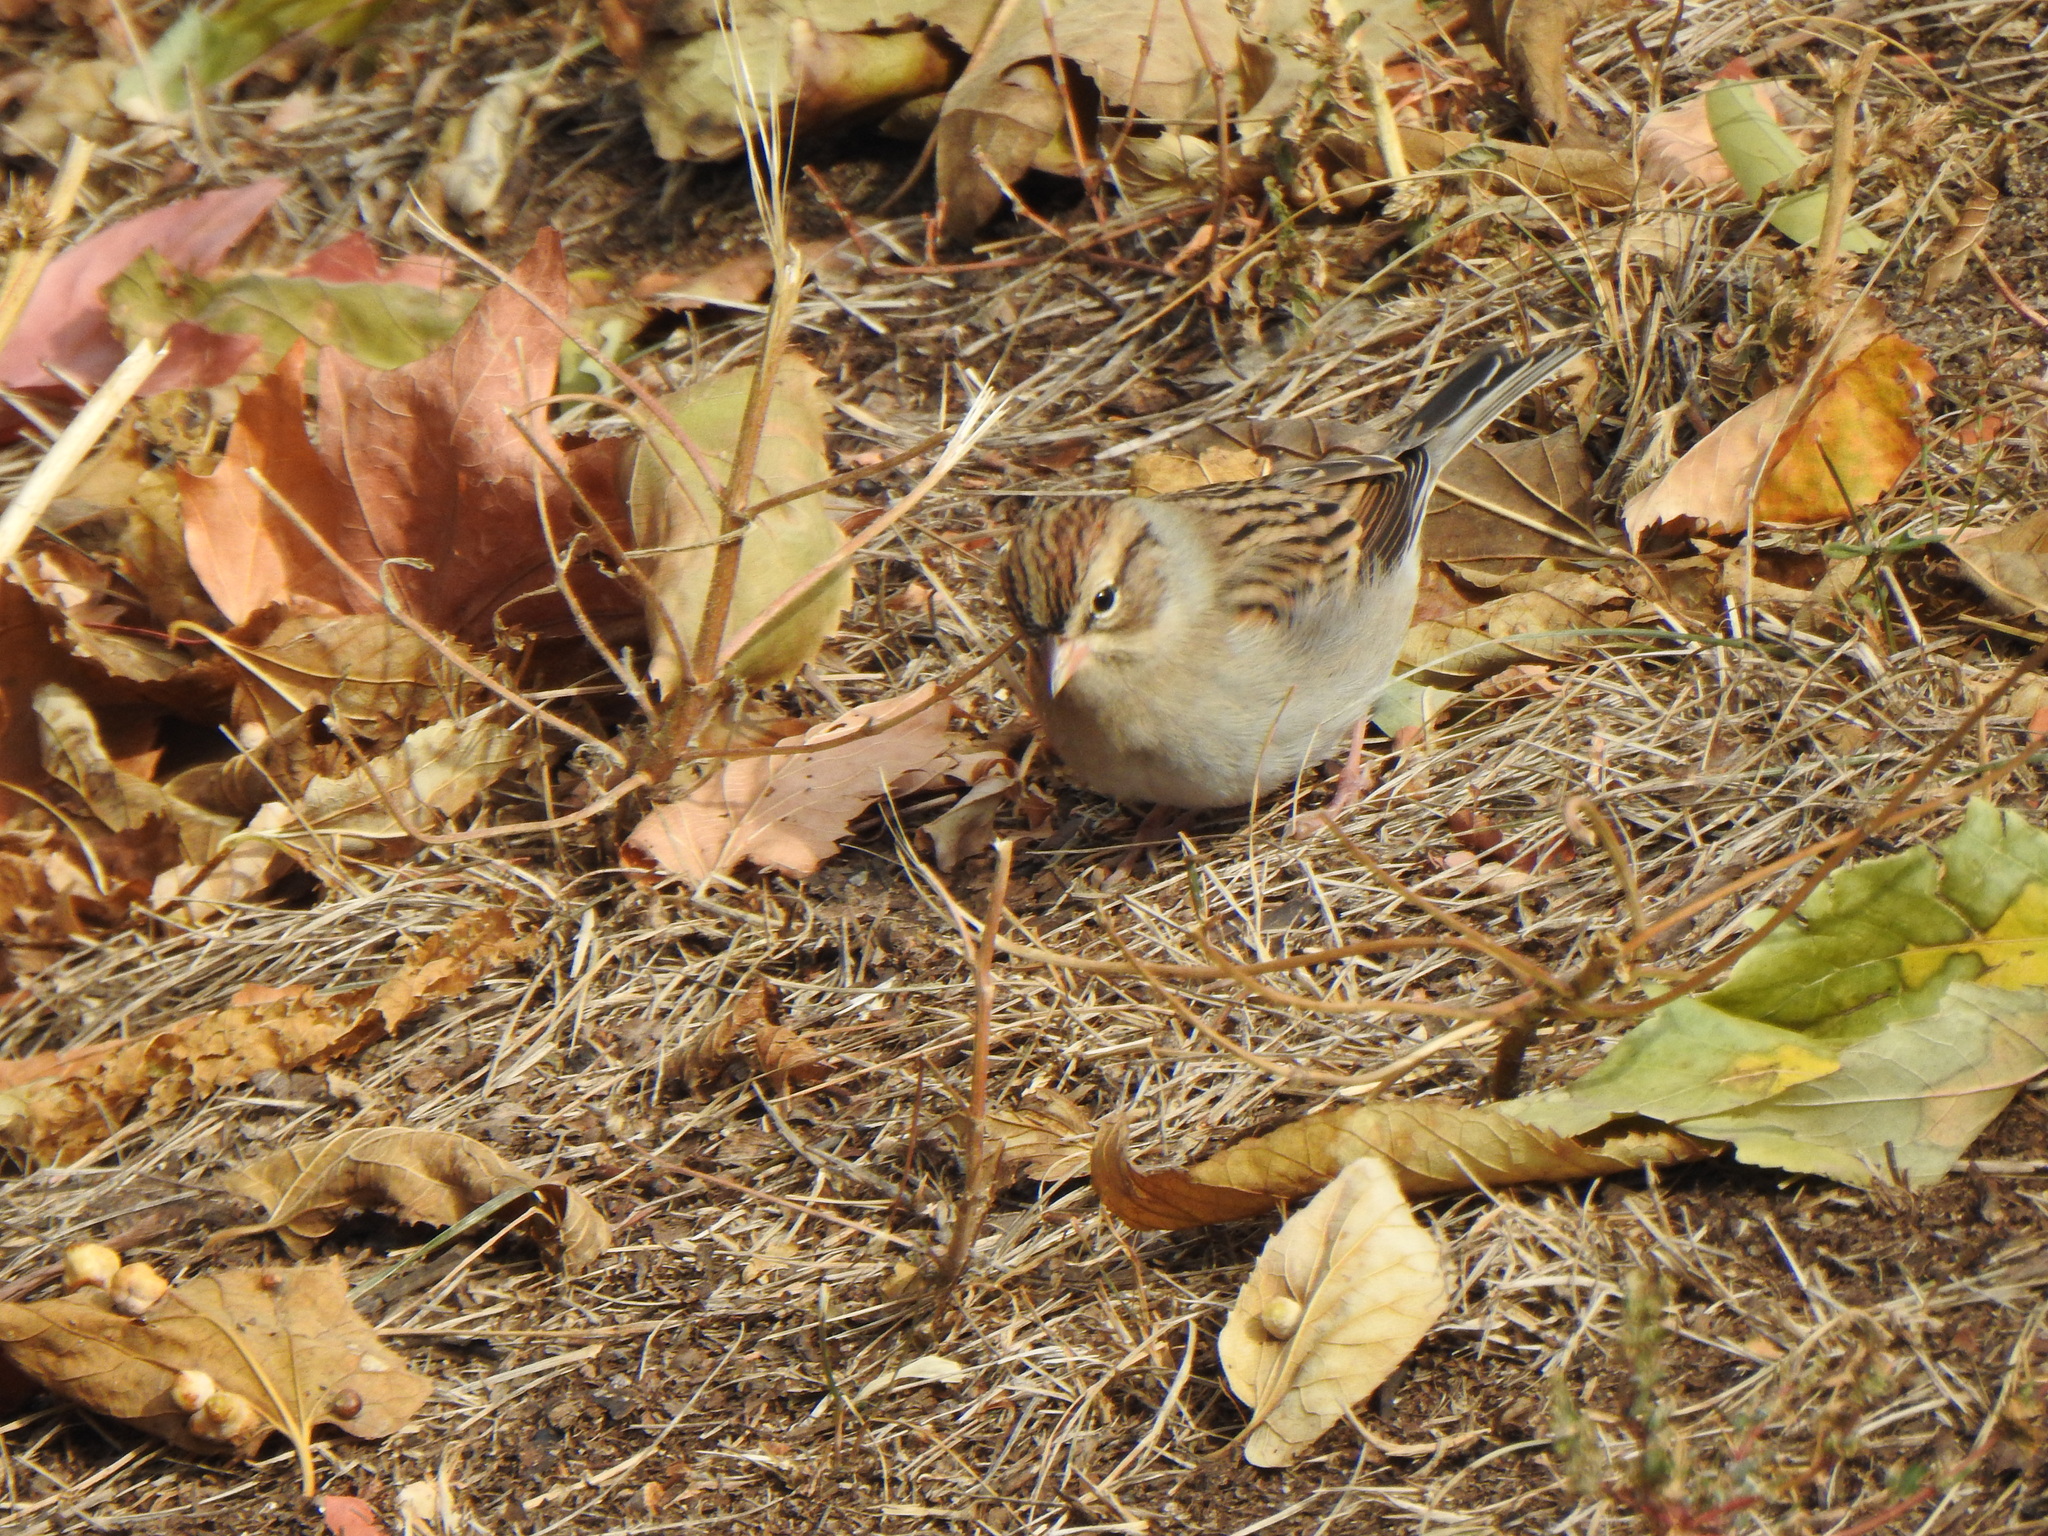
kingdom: Animalia
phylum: Chordata
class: Aves
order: Passeriformes
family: Passerellidae
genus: Spizella
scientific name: Spizella passerina
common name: Chipping sparrow
